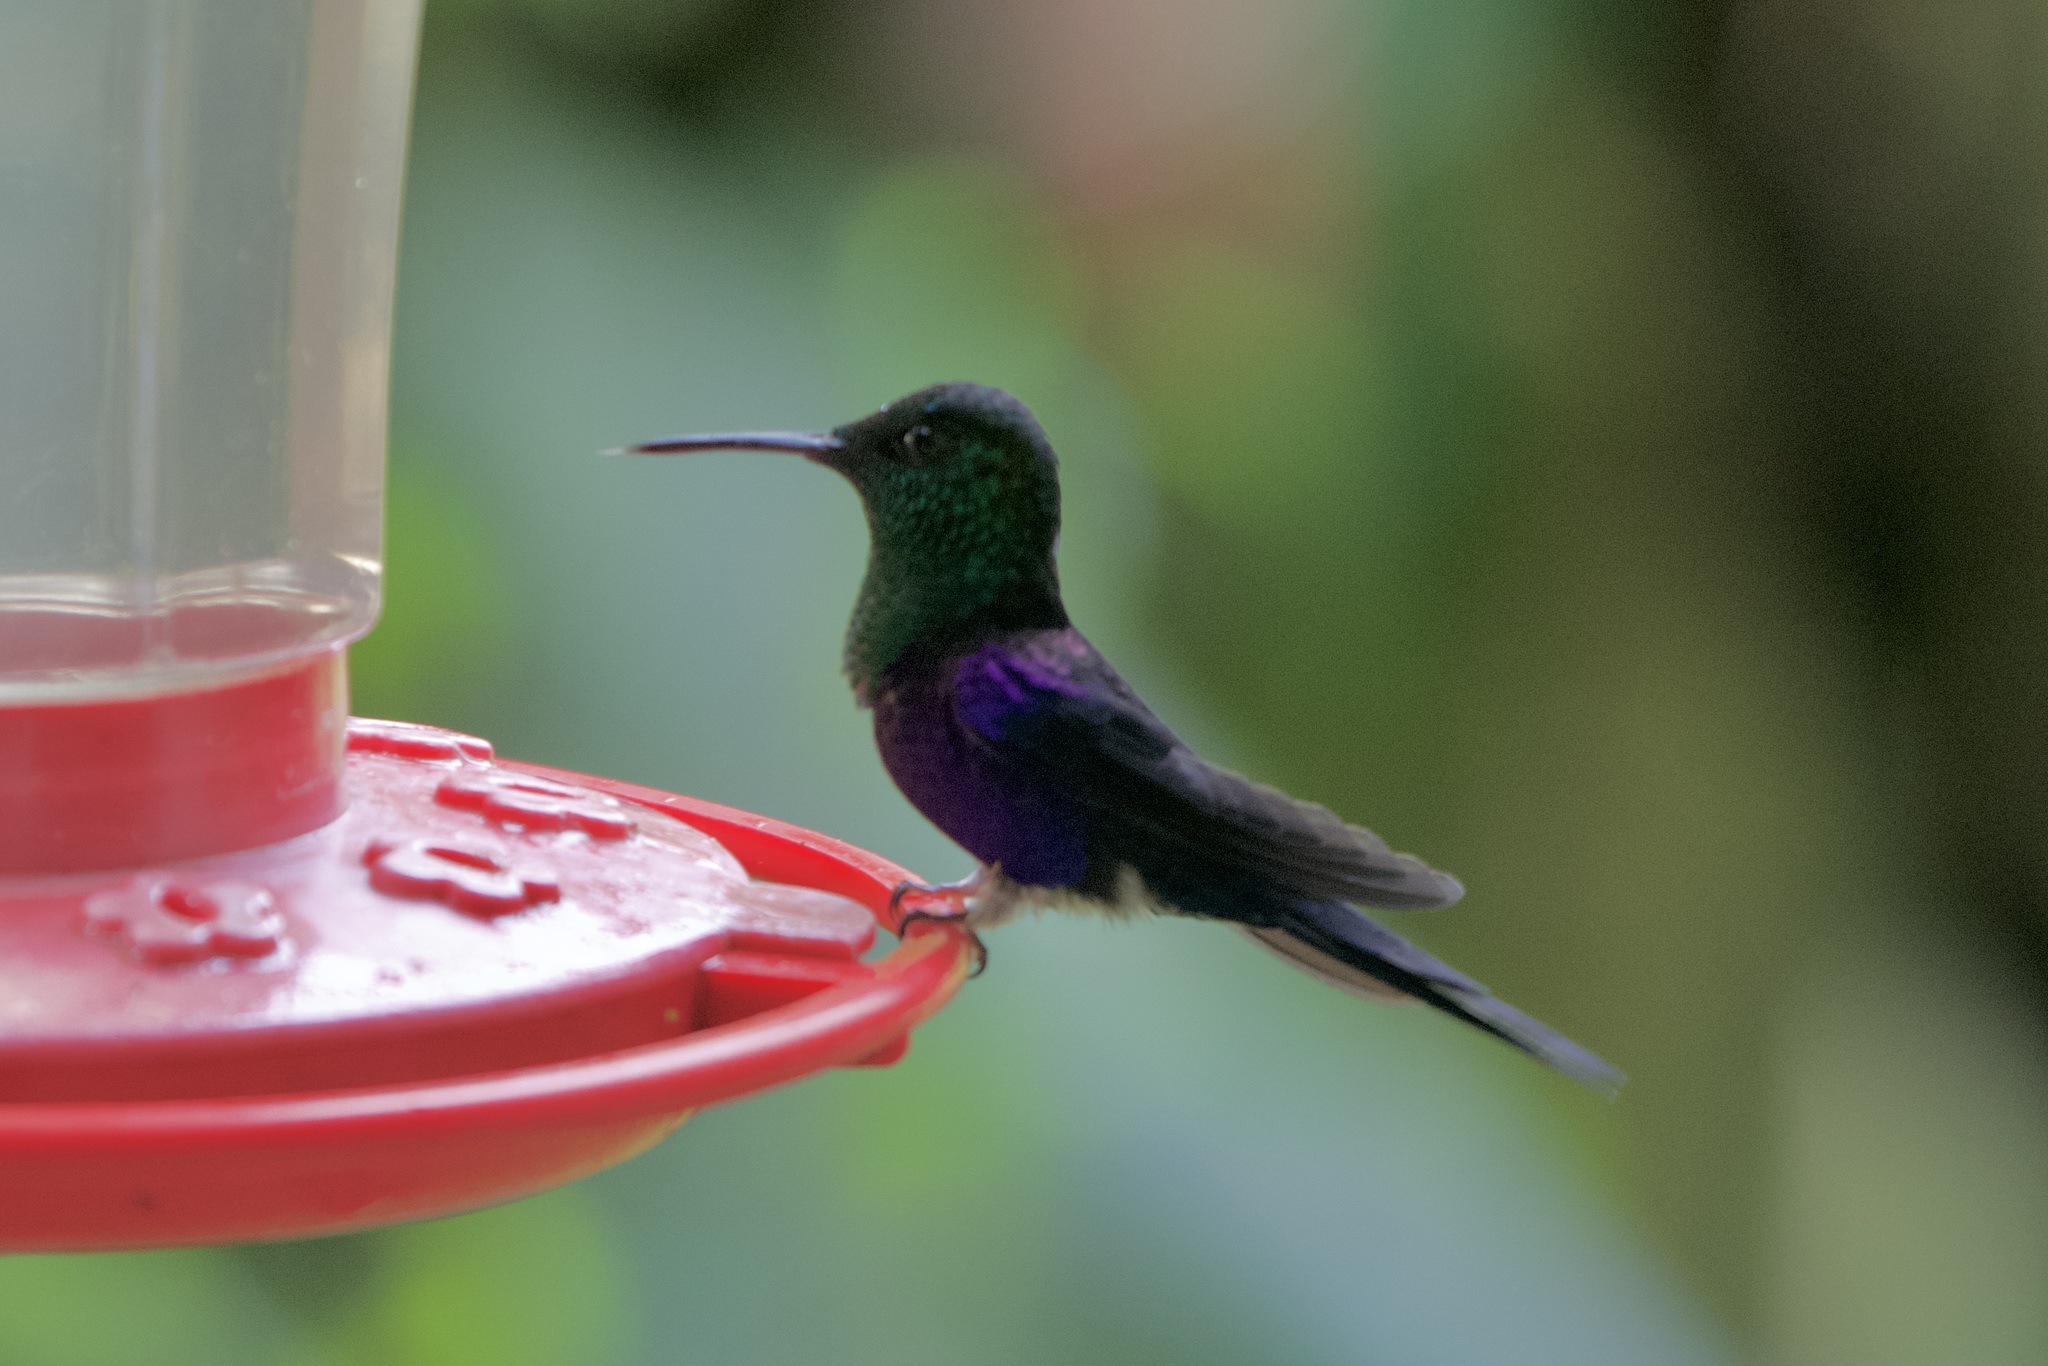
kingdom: Animalia
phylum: Chordata
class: Aves
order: Apodiformes
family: Trochilidae
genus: Thalurania
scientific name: Thalurania colombica
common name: Crowned woodnymph
